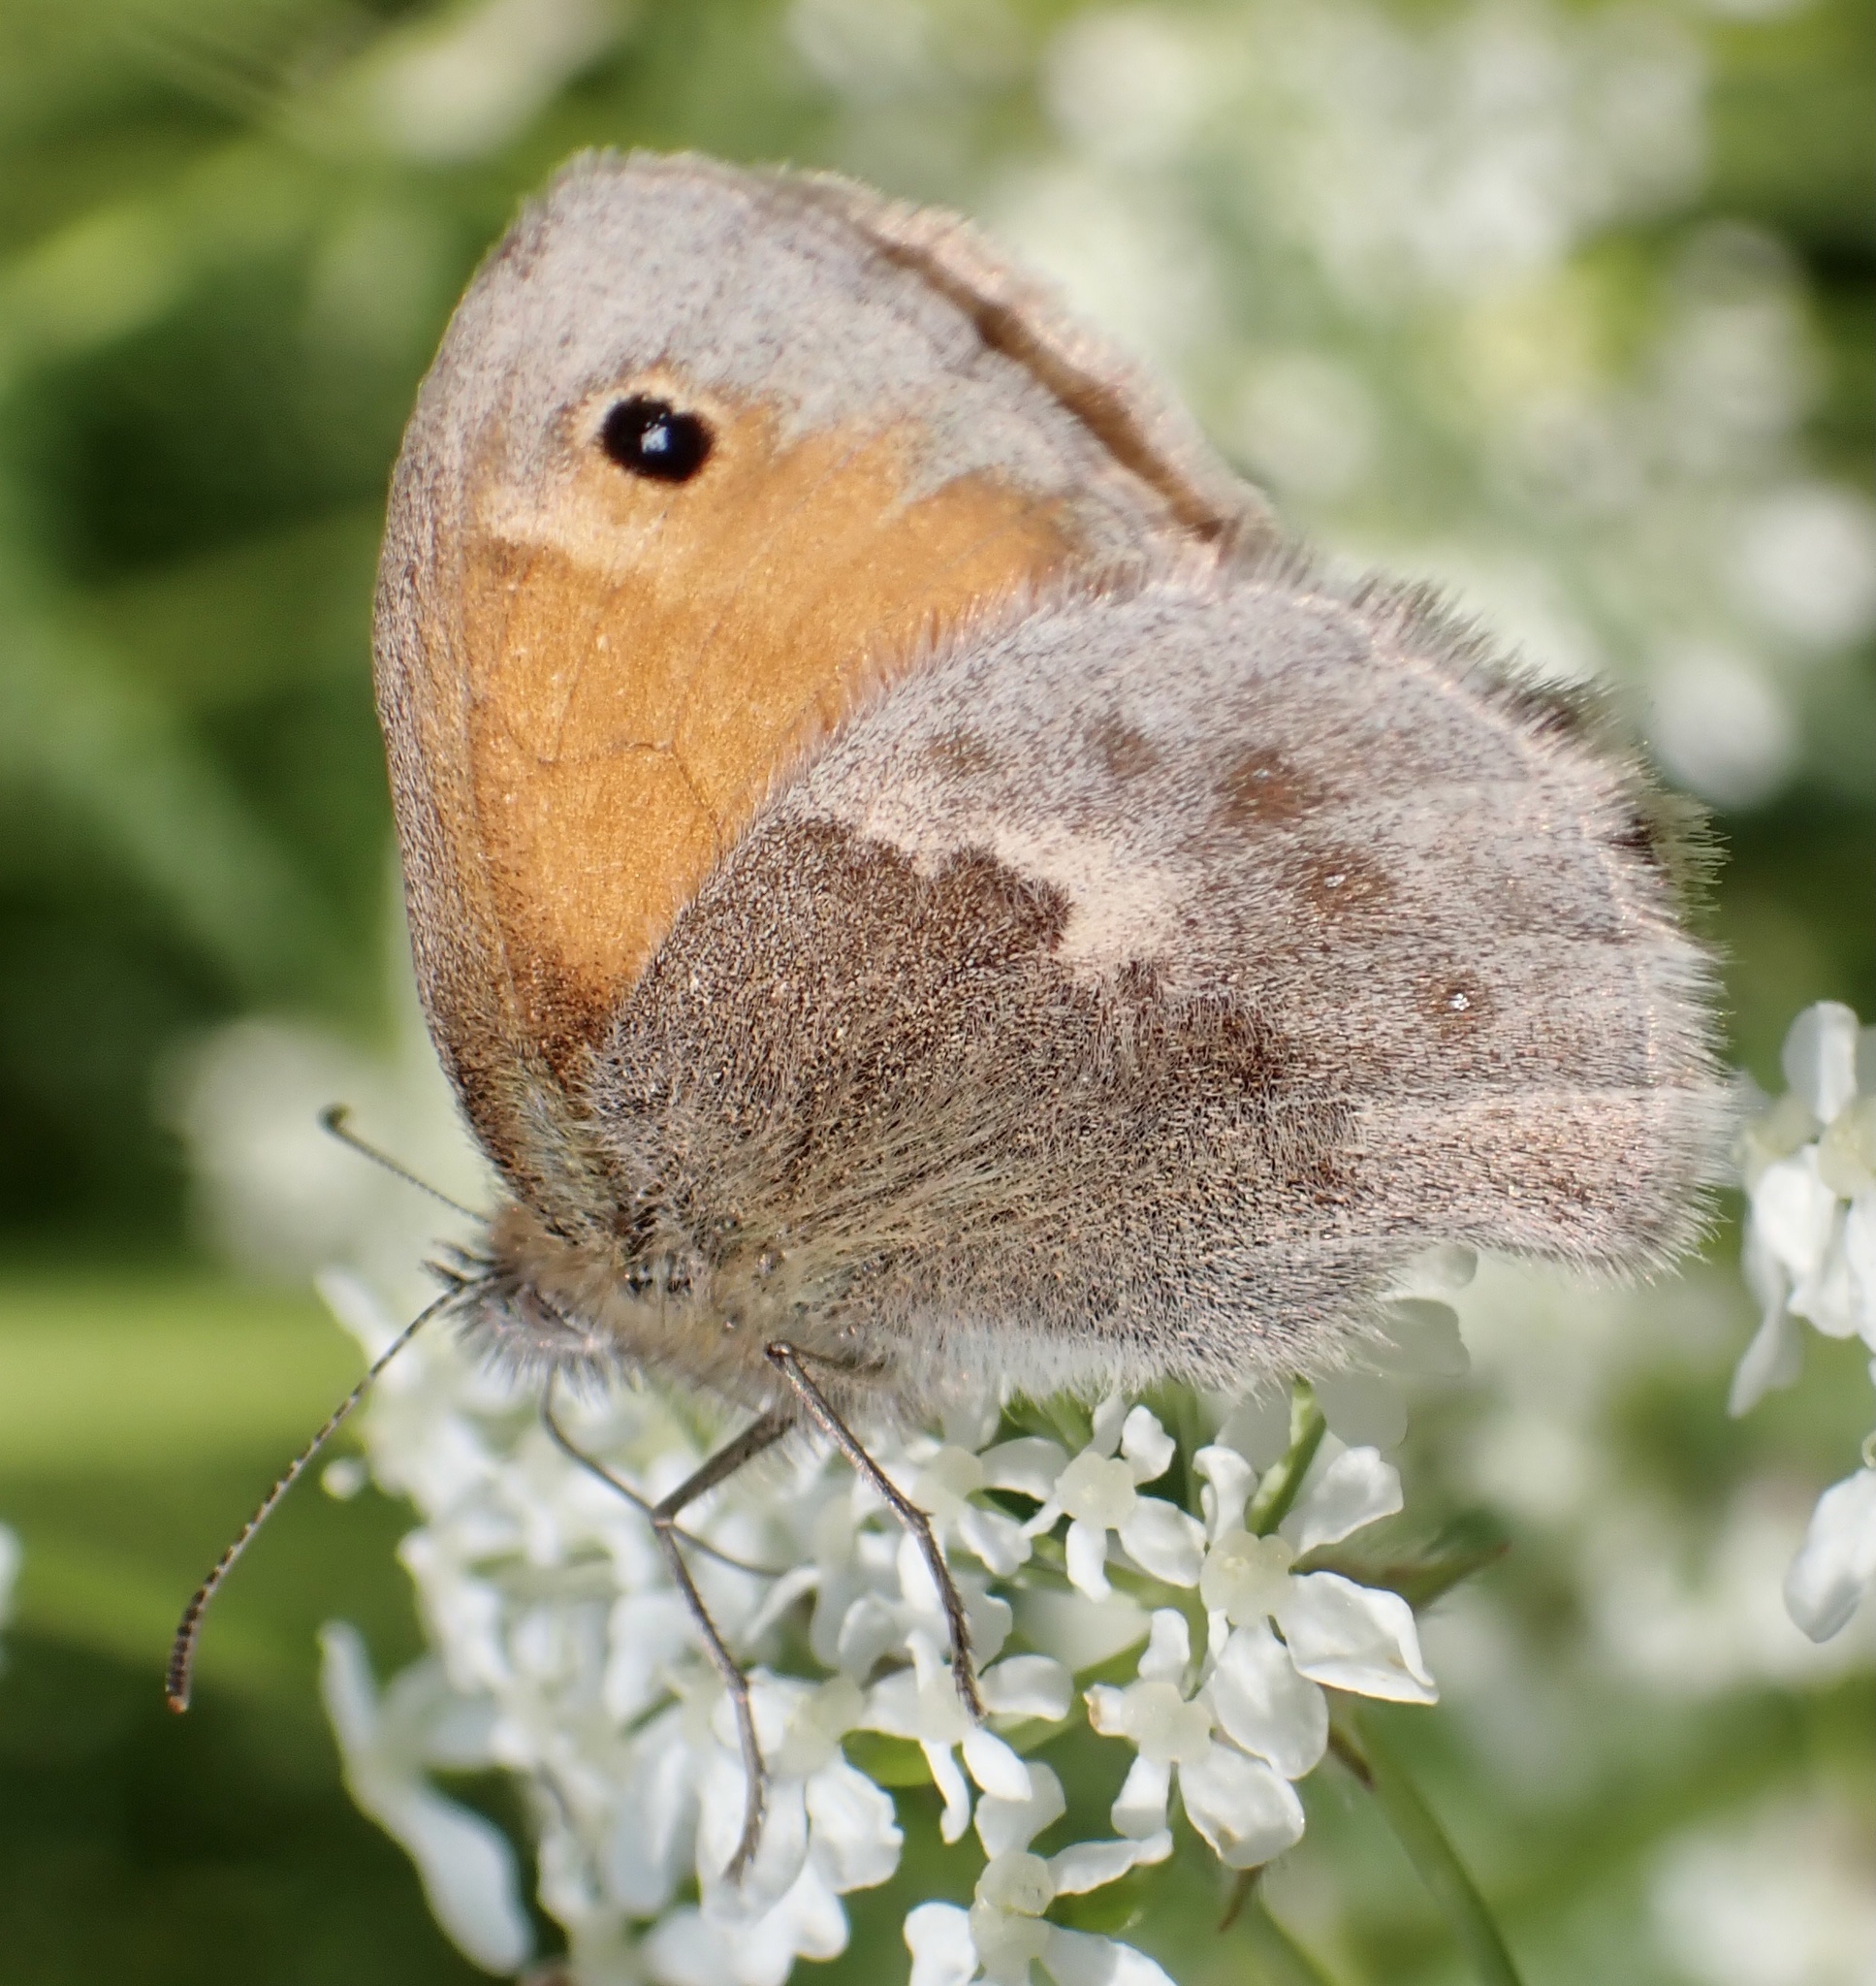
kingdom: Animalia
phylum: Arthropoda
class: Insecta
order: Lepidoptera
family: Nymphalidae
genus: Coenonympha
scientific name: Coenonympha pamphilus
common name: Small heath
